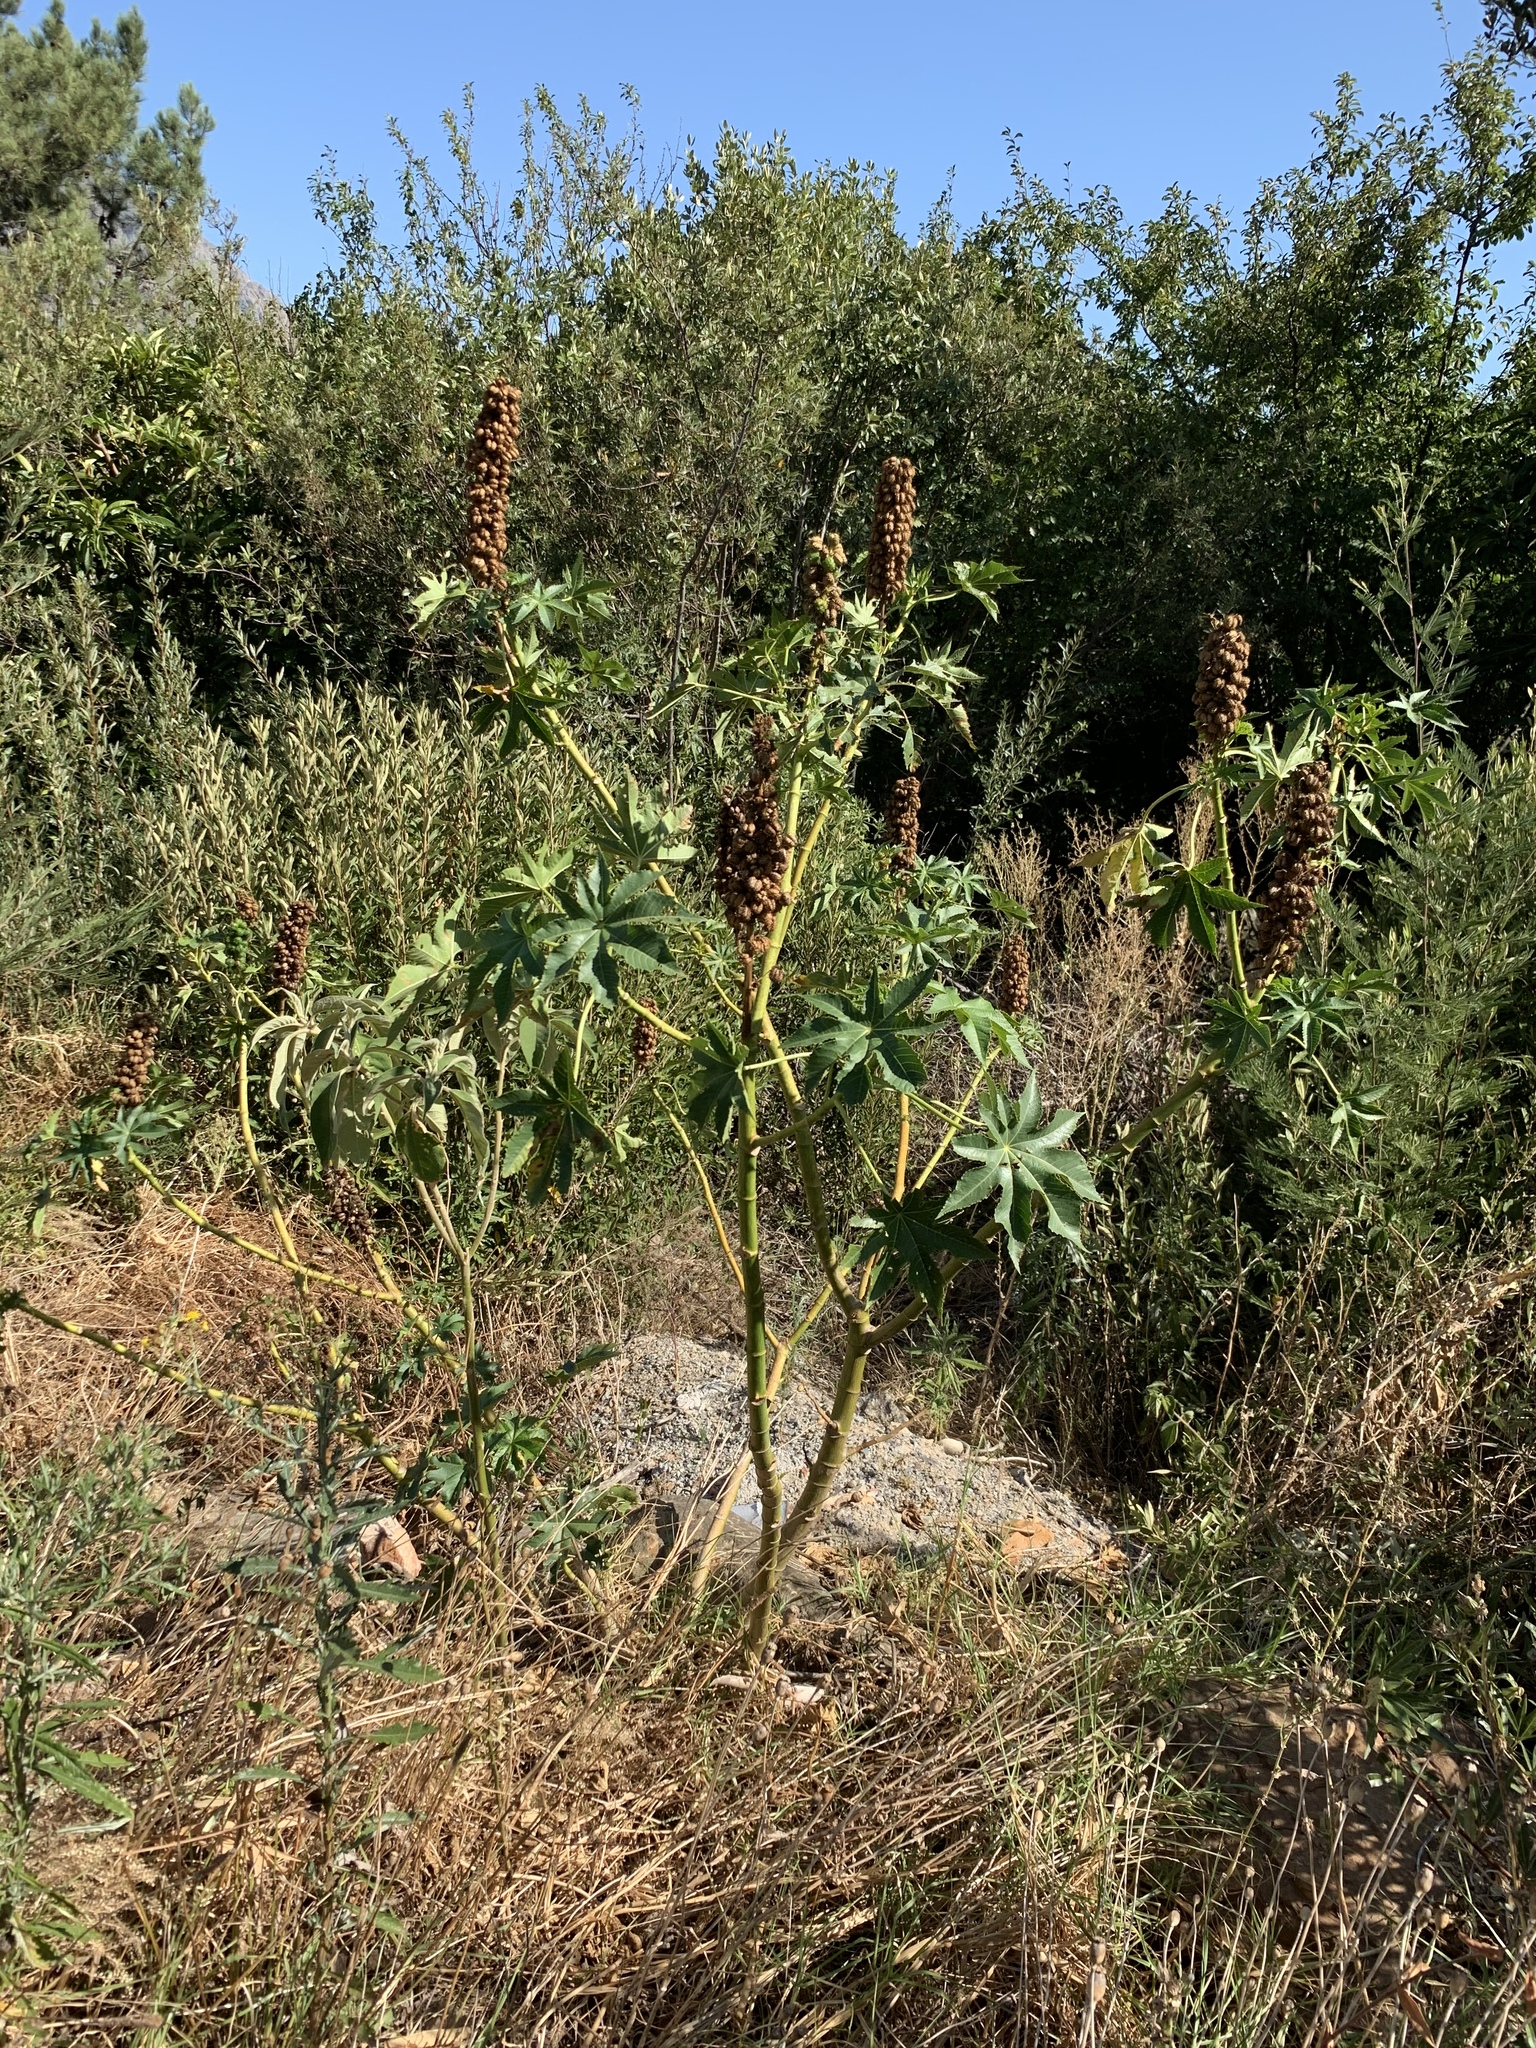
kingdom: Plantae
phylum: Tracheophyta
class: Magnoliopsida
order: Malpighiales
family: Euphorbiaceae
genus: Ricinus
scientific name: Ricinus communis
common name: Castor-oil-plant
